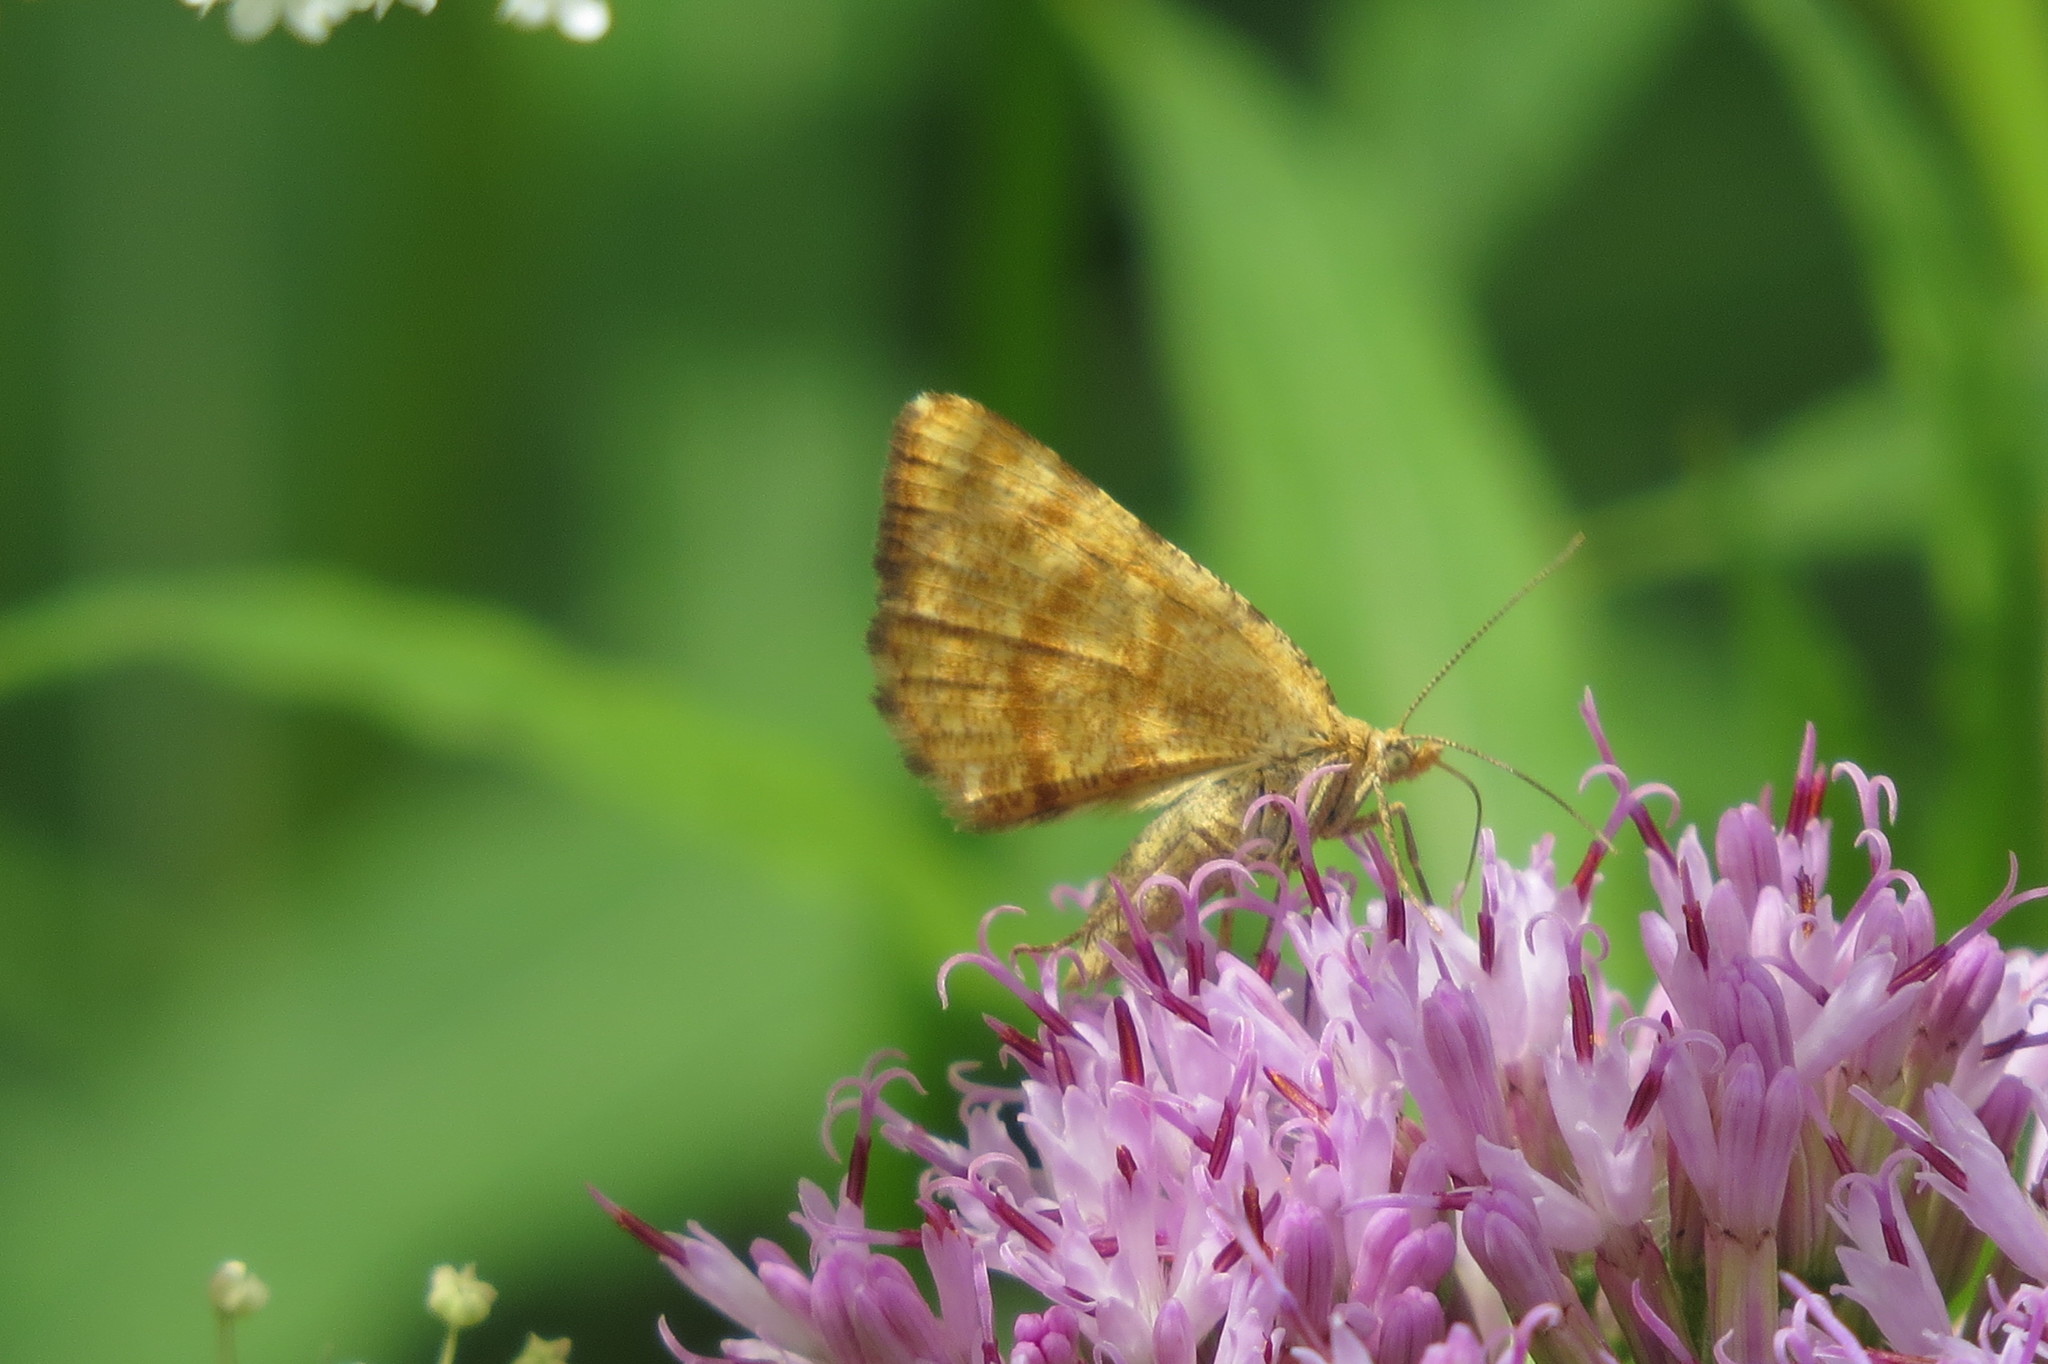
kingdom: Animalia
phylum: Arthropoda
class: Insecta
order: Lepidoptera
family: Geometridae
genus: Macaria
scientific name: Macaria brunneata
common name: Rannoch looper
